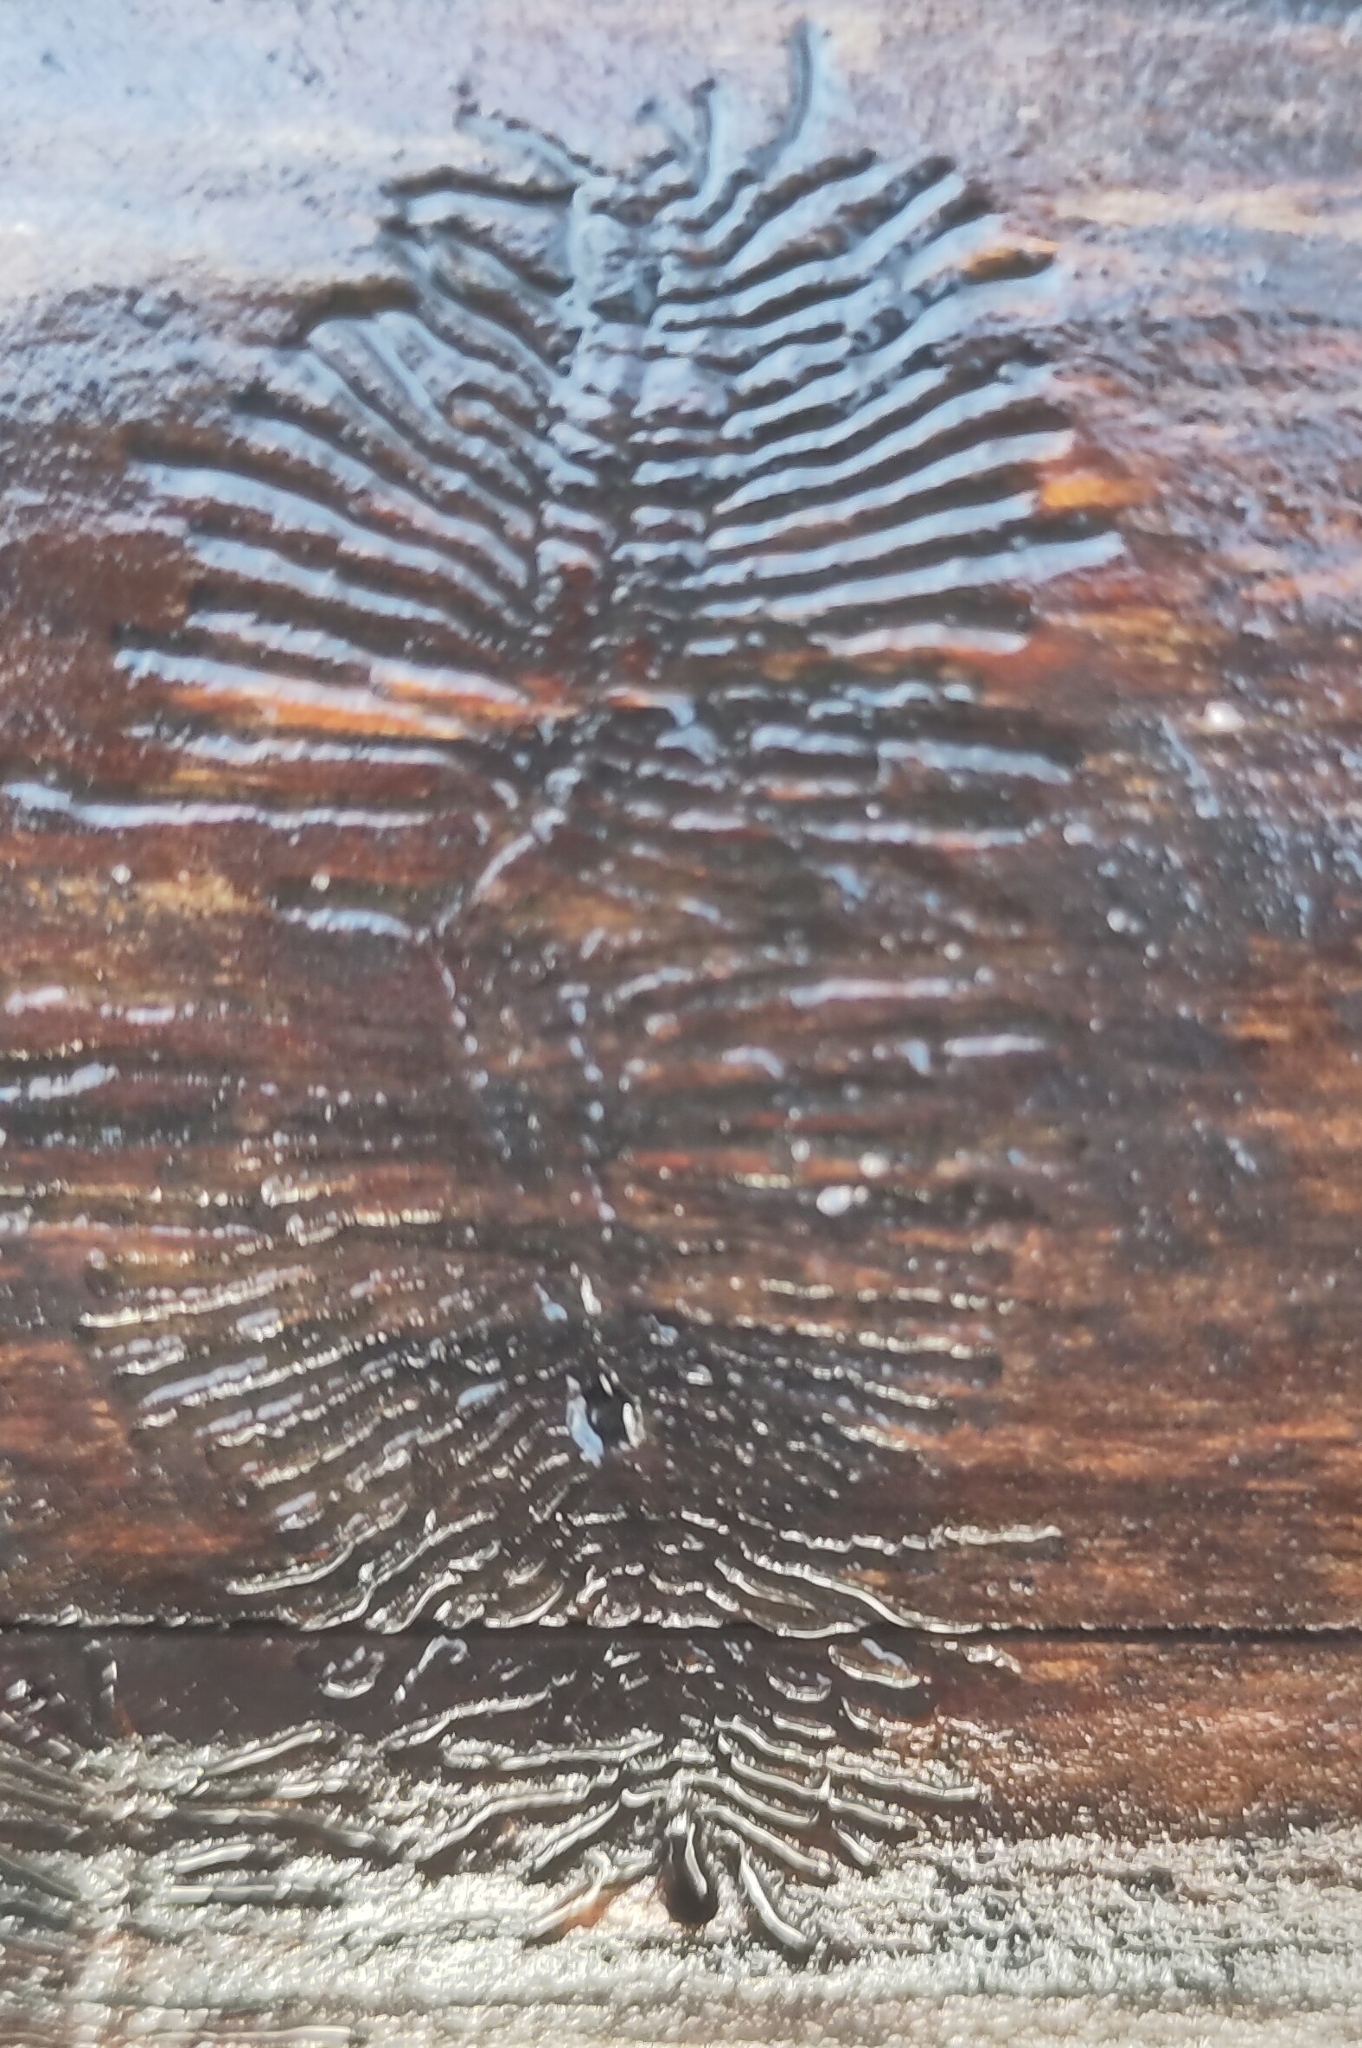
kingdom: Animalia
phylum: Arthropoda
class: Insecta
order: Coleoptera
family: Curculionidae
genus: Hylesinus
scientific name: Hylesinus varius
